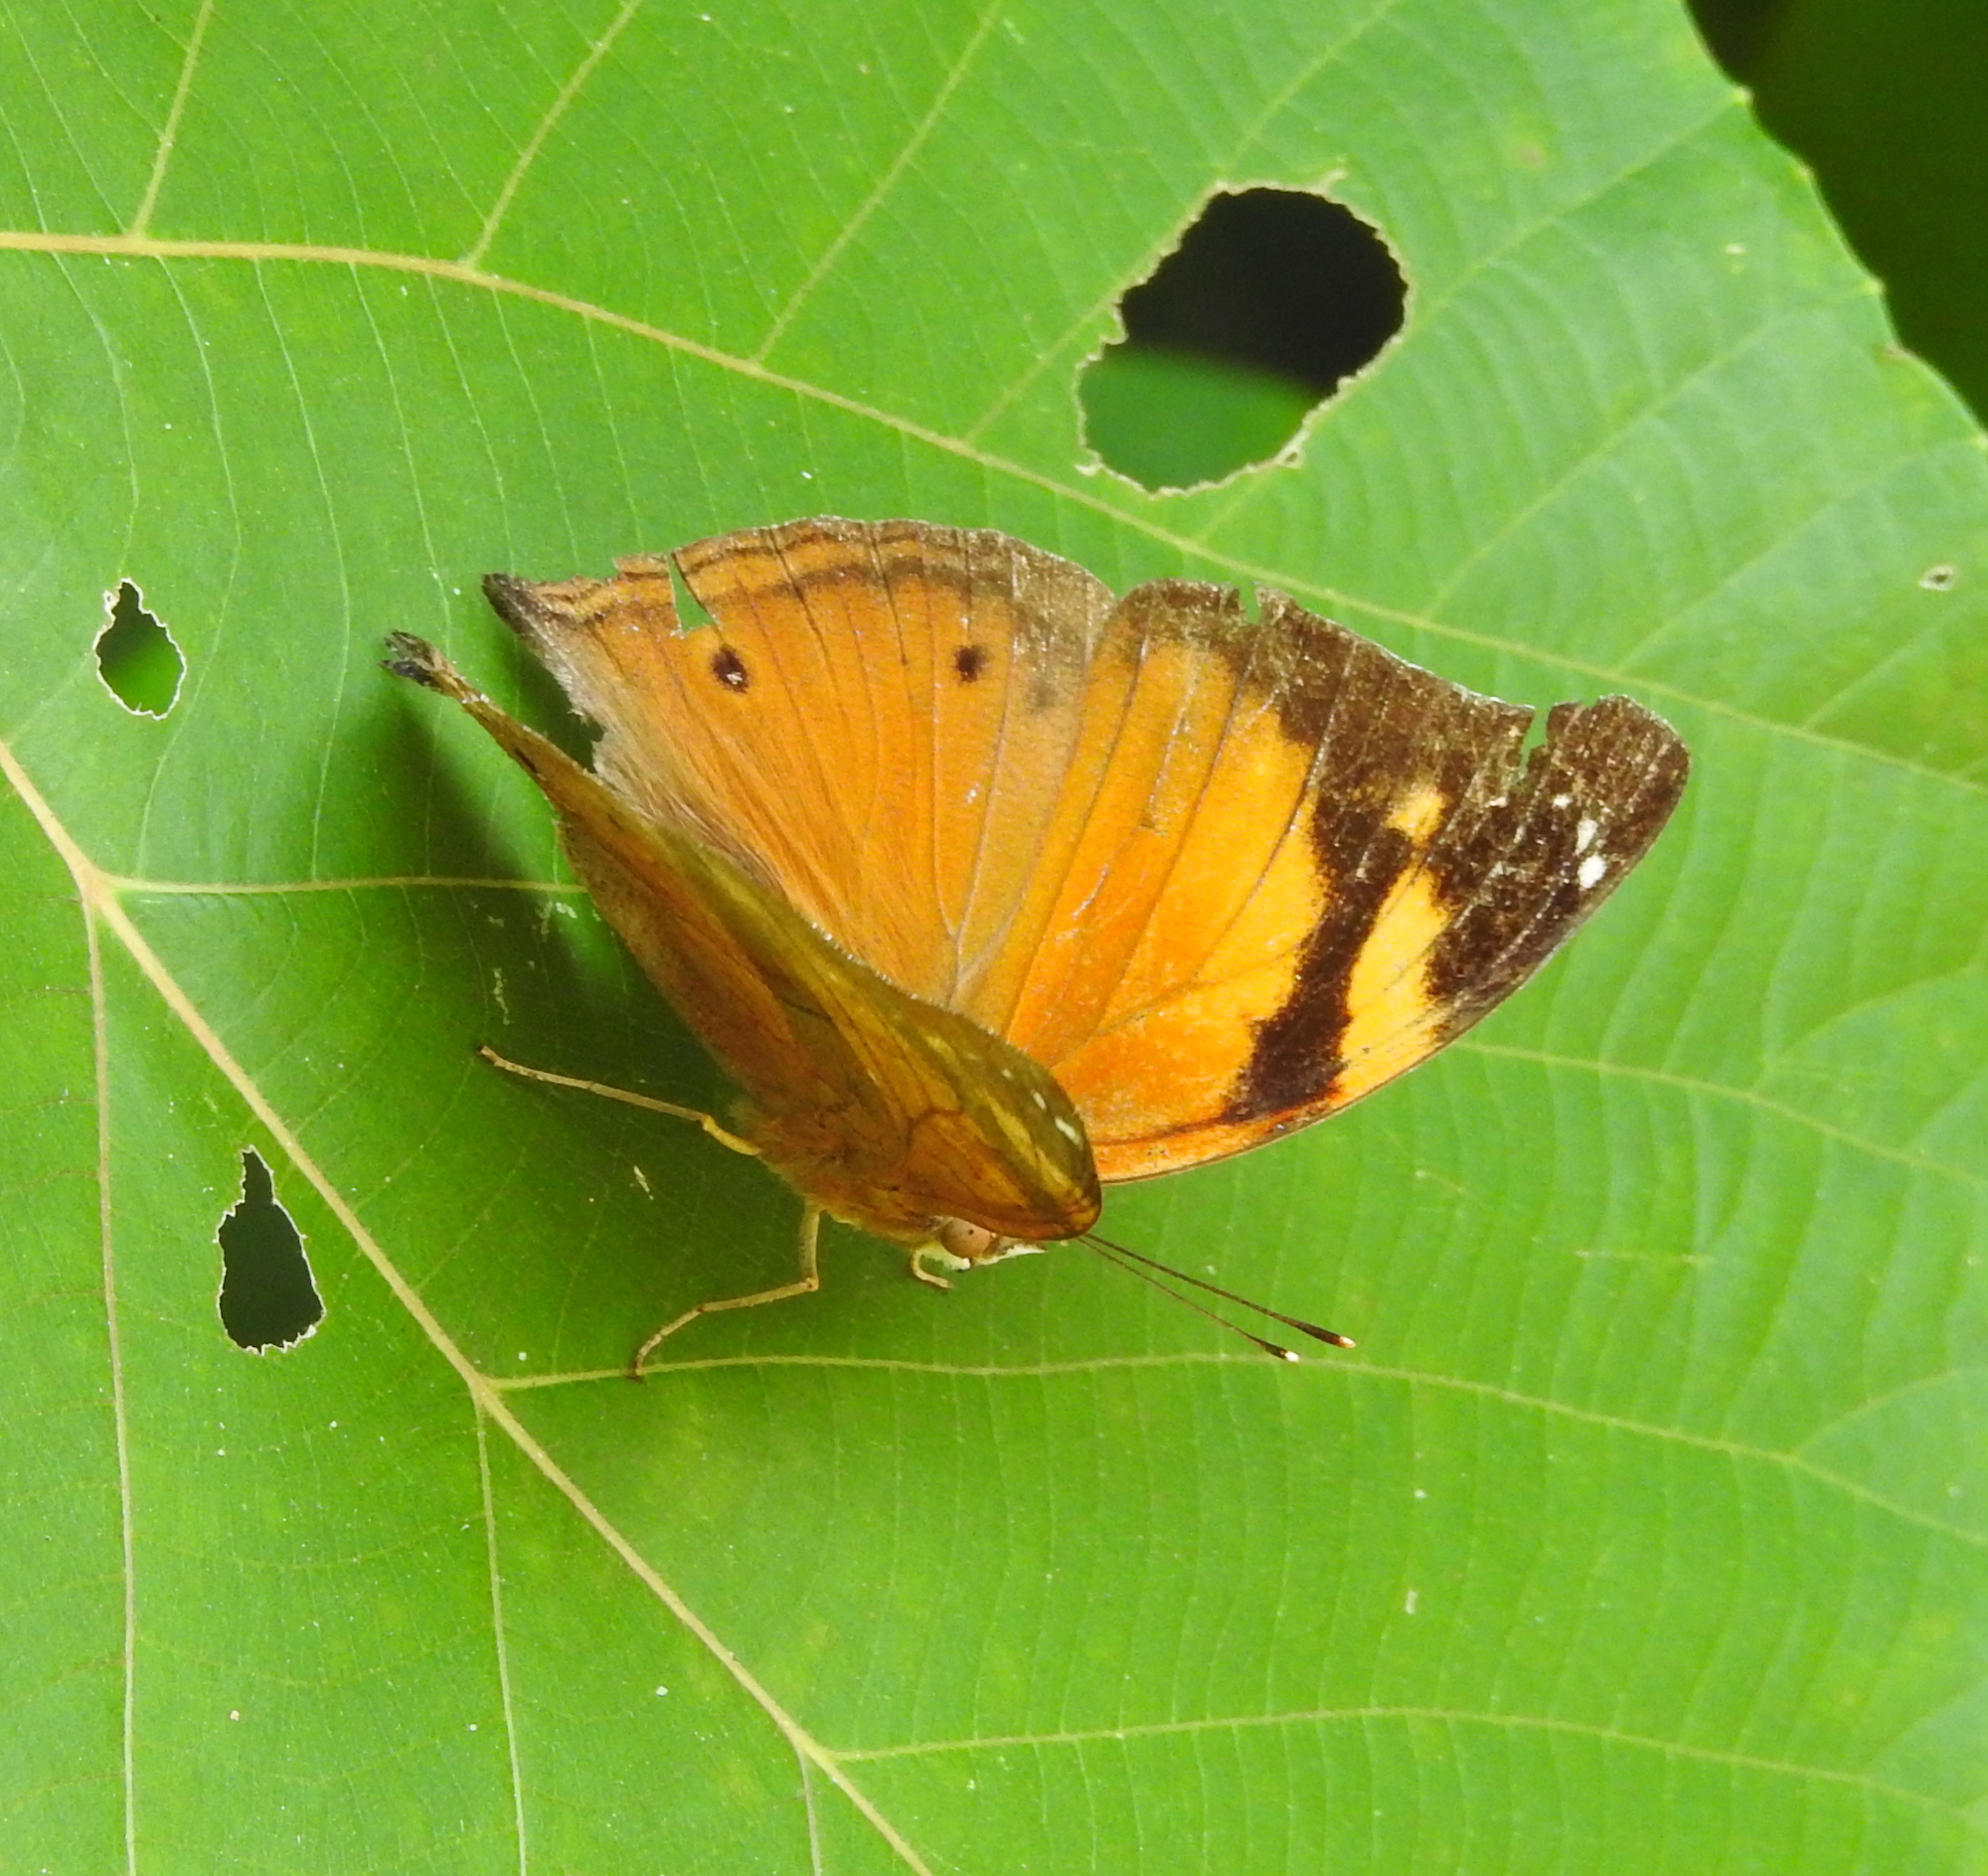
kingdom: Animalia
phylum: Arthropoda
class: Insecta
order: Lepidoptera
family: Nymphalidae
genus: Doleschallia
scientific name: Doleschallia bisaltide
